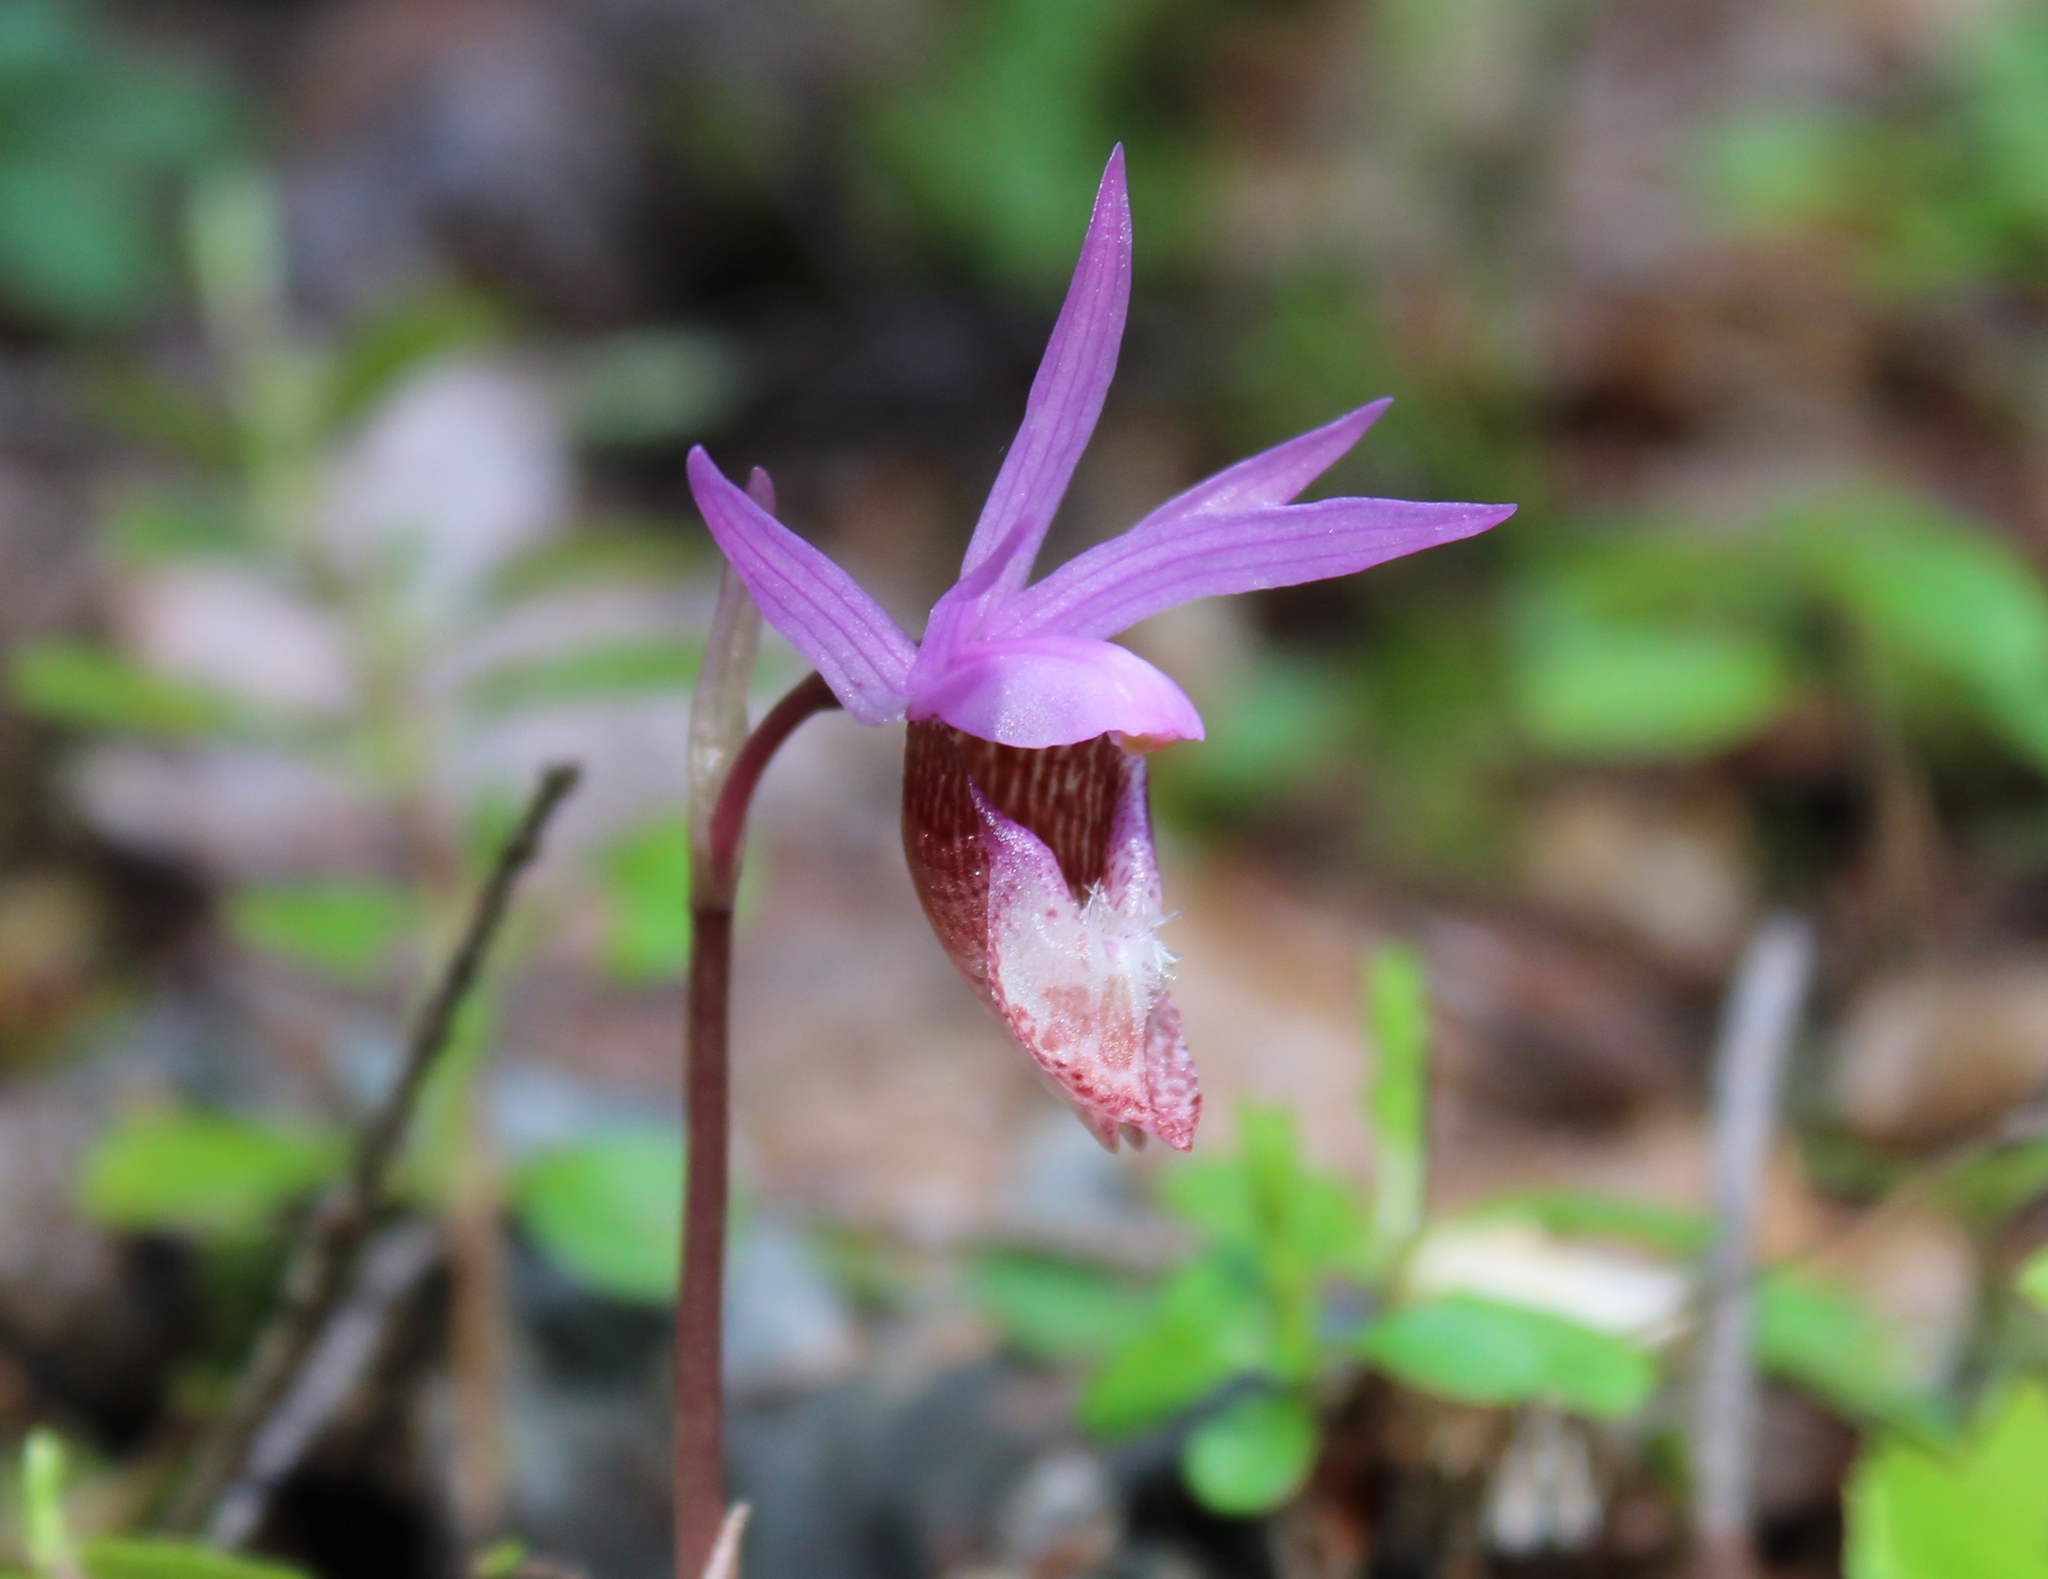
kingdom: Plantae
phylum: Tracheophyta
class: Liliopsida
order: Asparagales
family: Orchidaceae
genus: Calypso
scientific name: Calypso bulbosa
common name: Calypso
